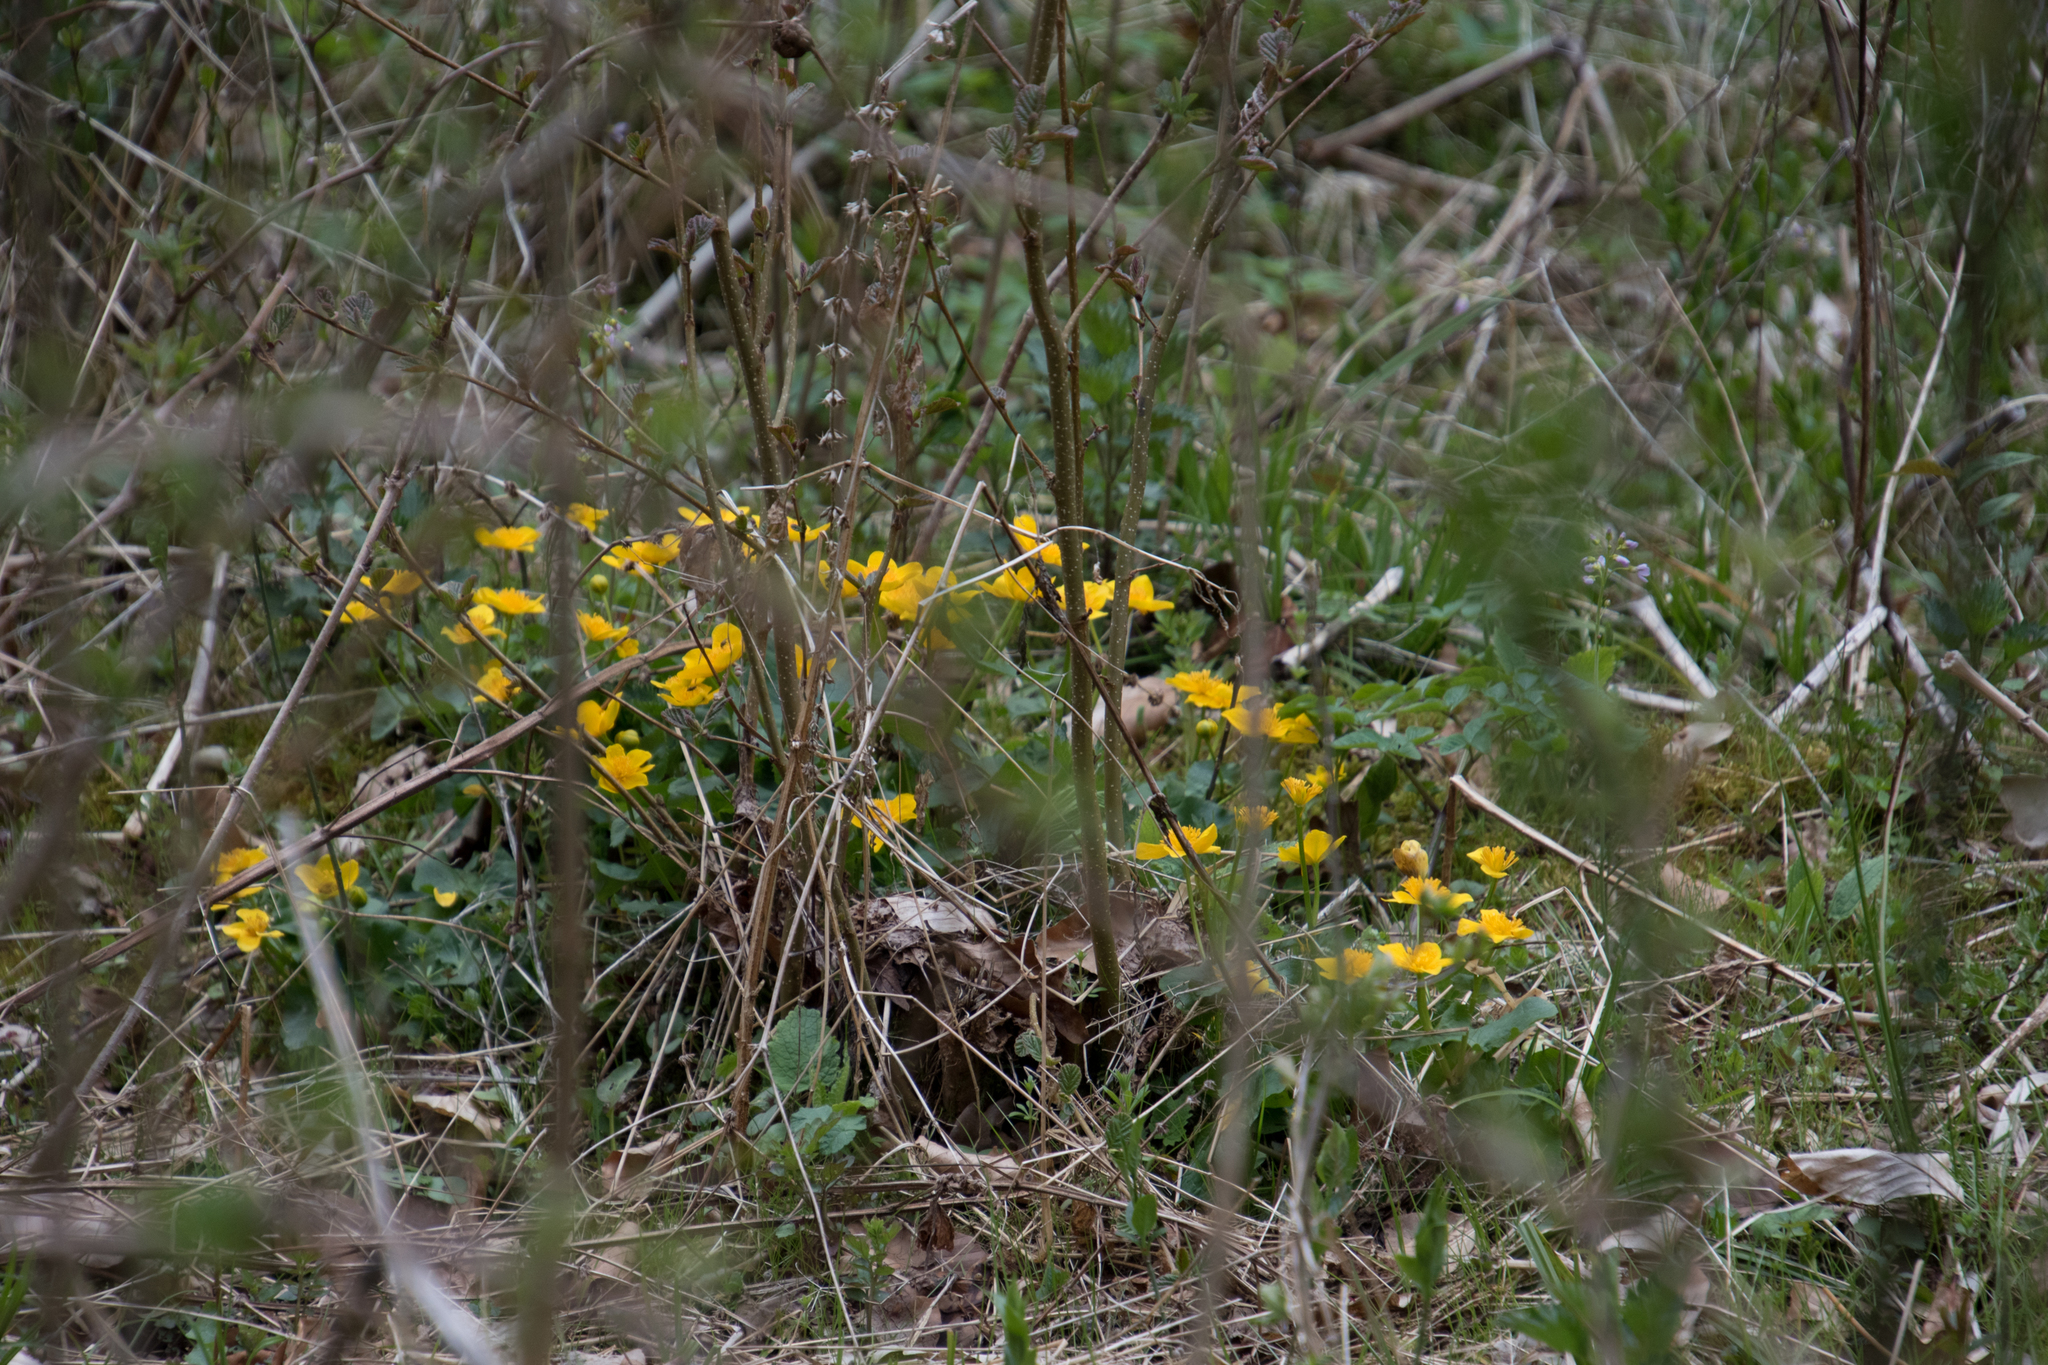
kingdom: Plantae
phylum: Tracheophyta
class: Magnoliopsida
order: Ranunculales
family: Ranunculaceae
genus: Caltha
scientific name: Caltha palustris
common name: Marsh marigold
